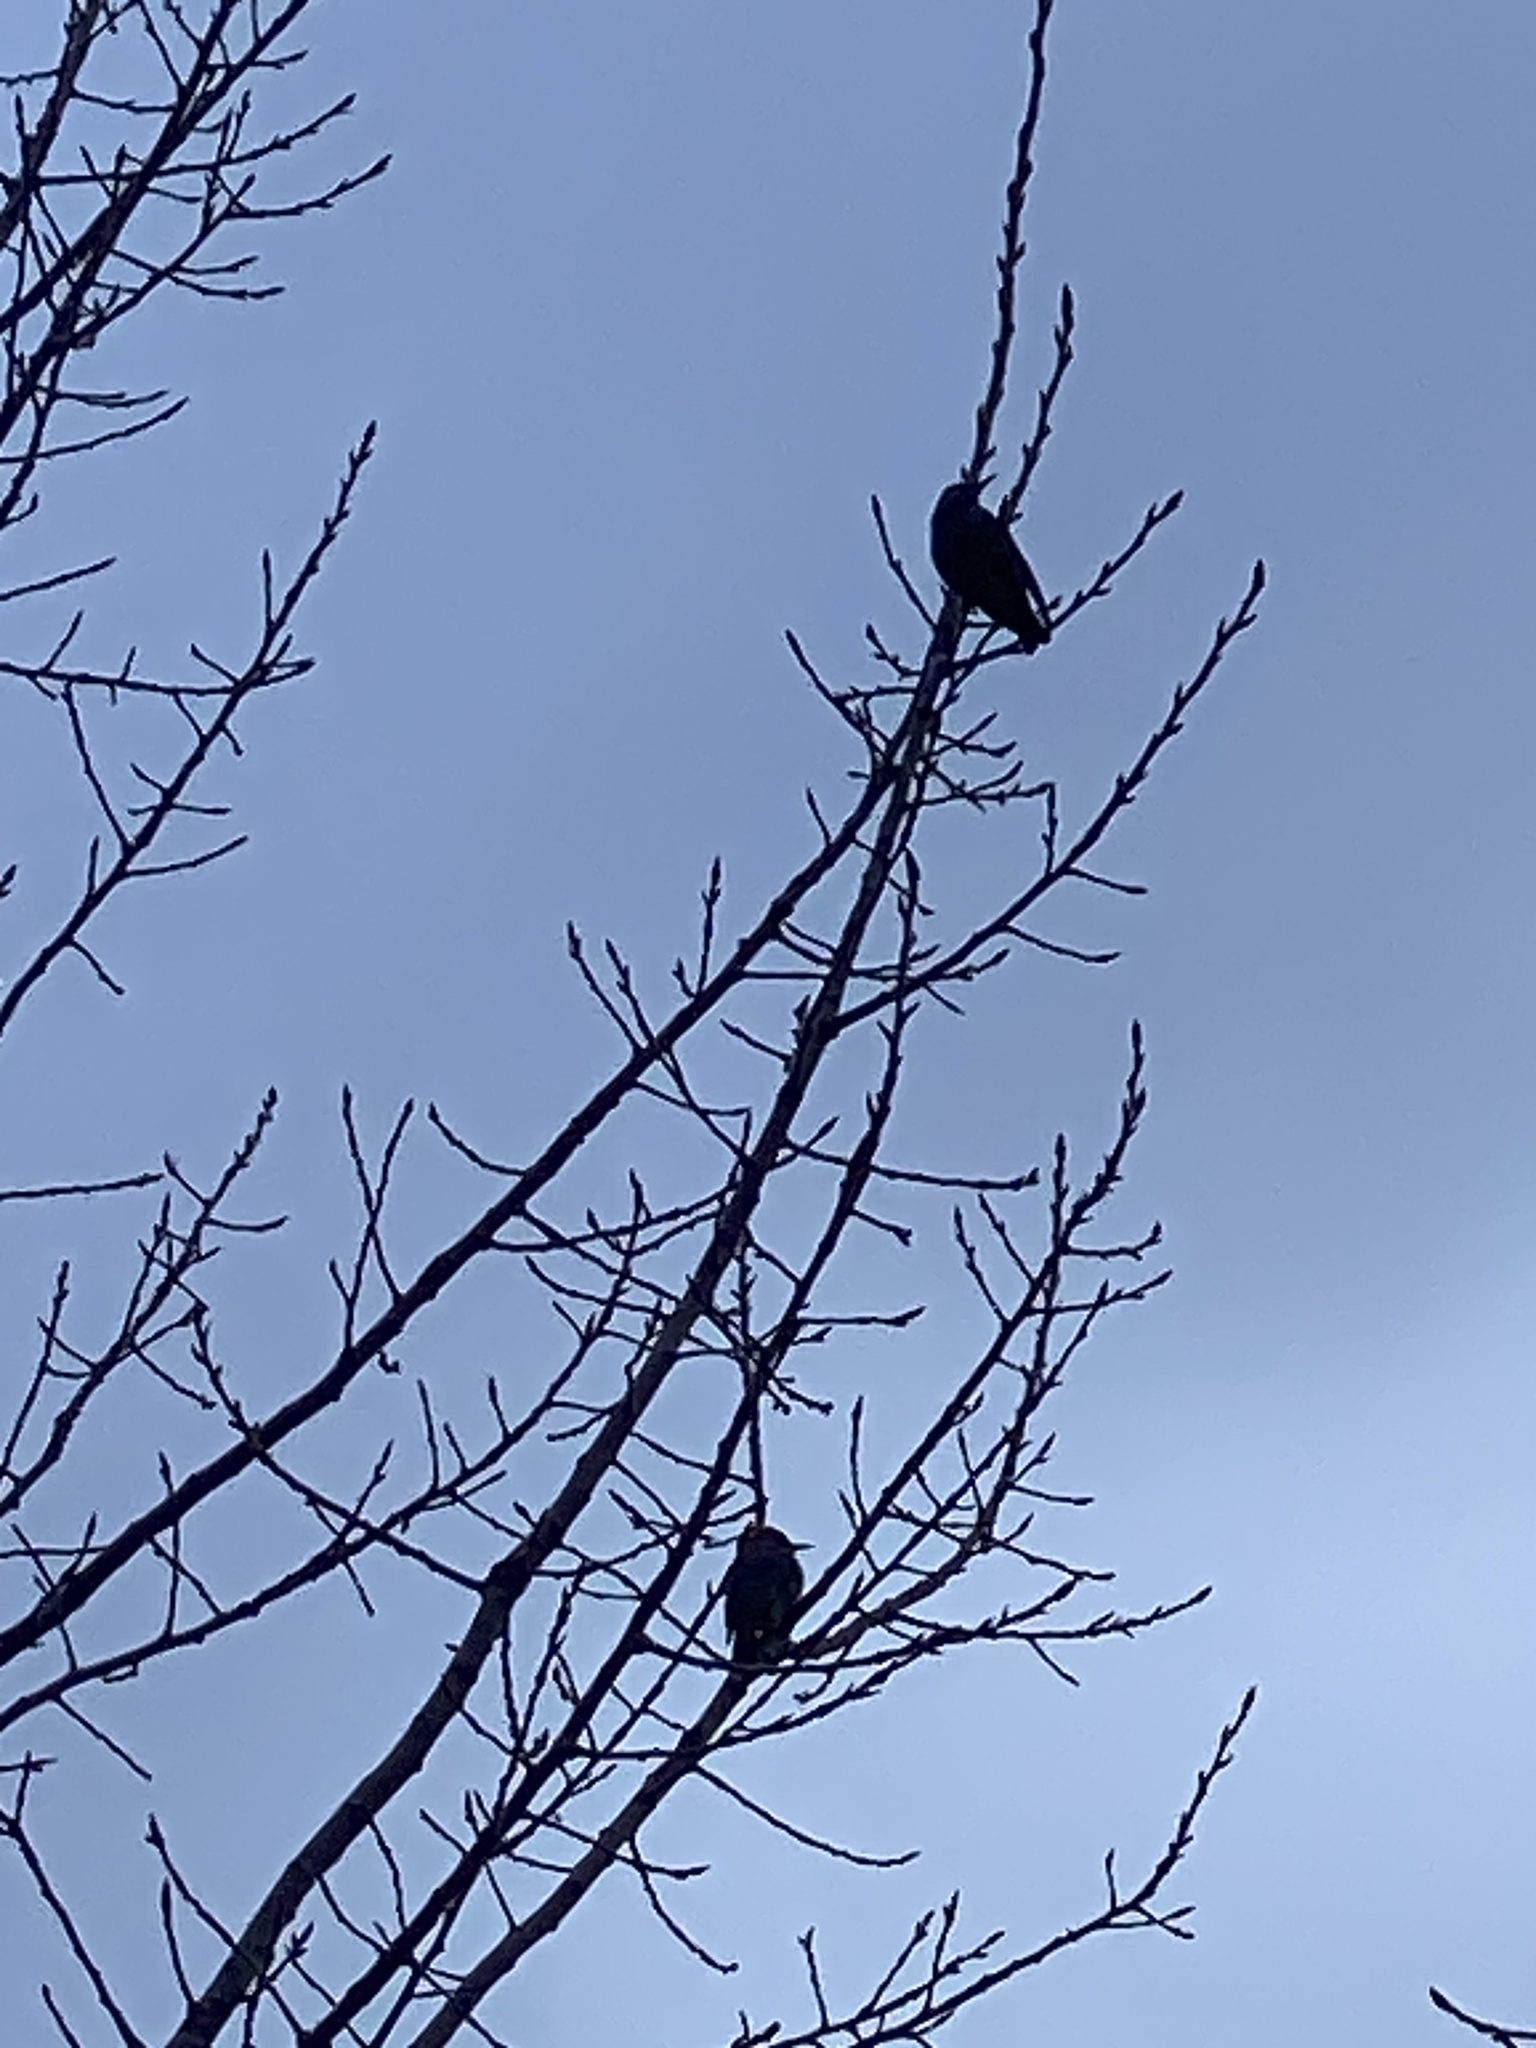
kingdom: Animalia
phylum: Chordata
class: Aves
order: Passeriformes
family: Sturnidae
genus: Sturnus
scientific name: Sturnus vulgaris
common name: Common starling
